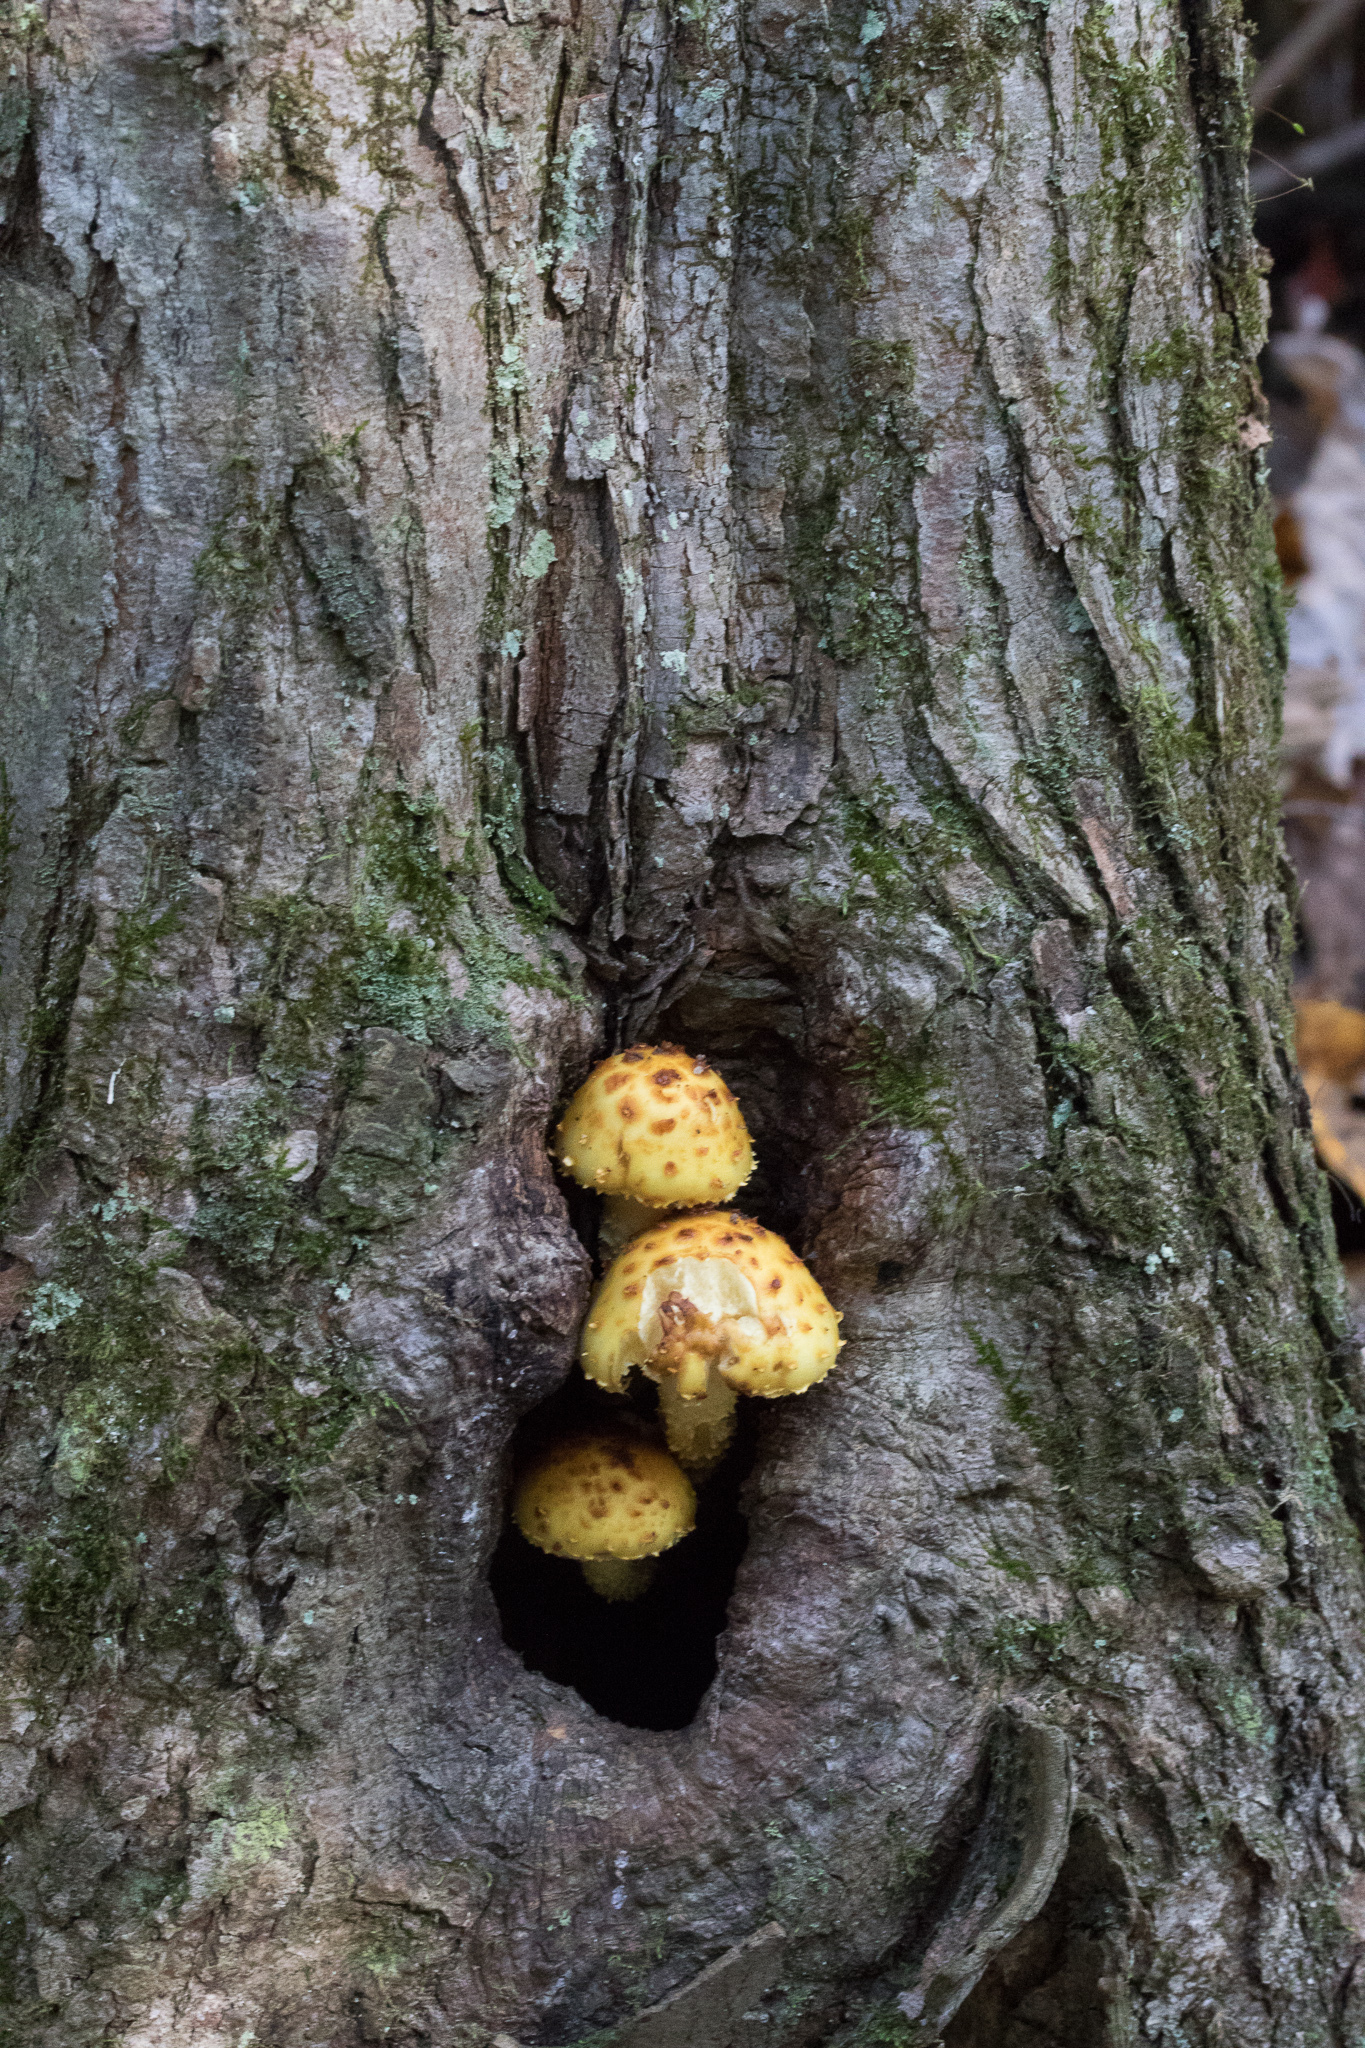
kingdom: Fungi
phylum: Basidiomycota
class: Agaricomycetes
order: Agaricales
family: Strophariaceae
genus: Pholiota
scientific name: Pholiota aurivella
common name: Golden scalycap
